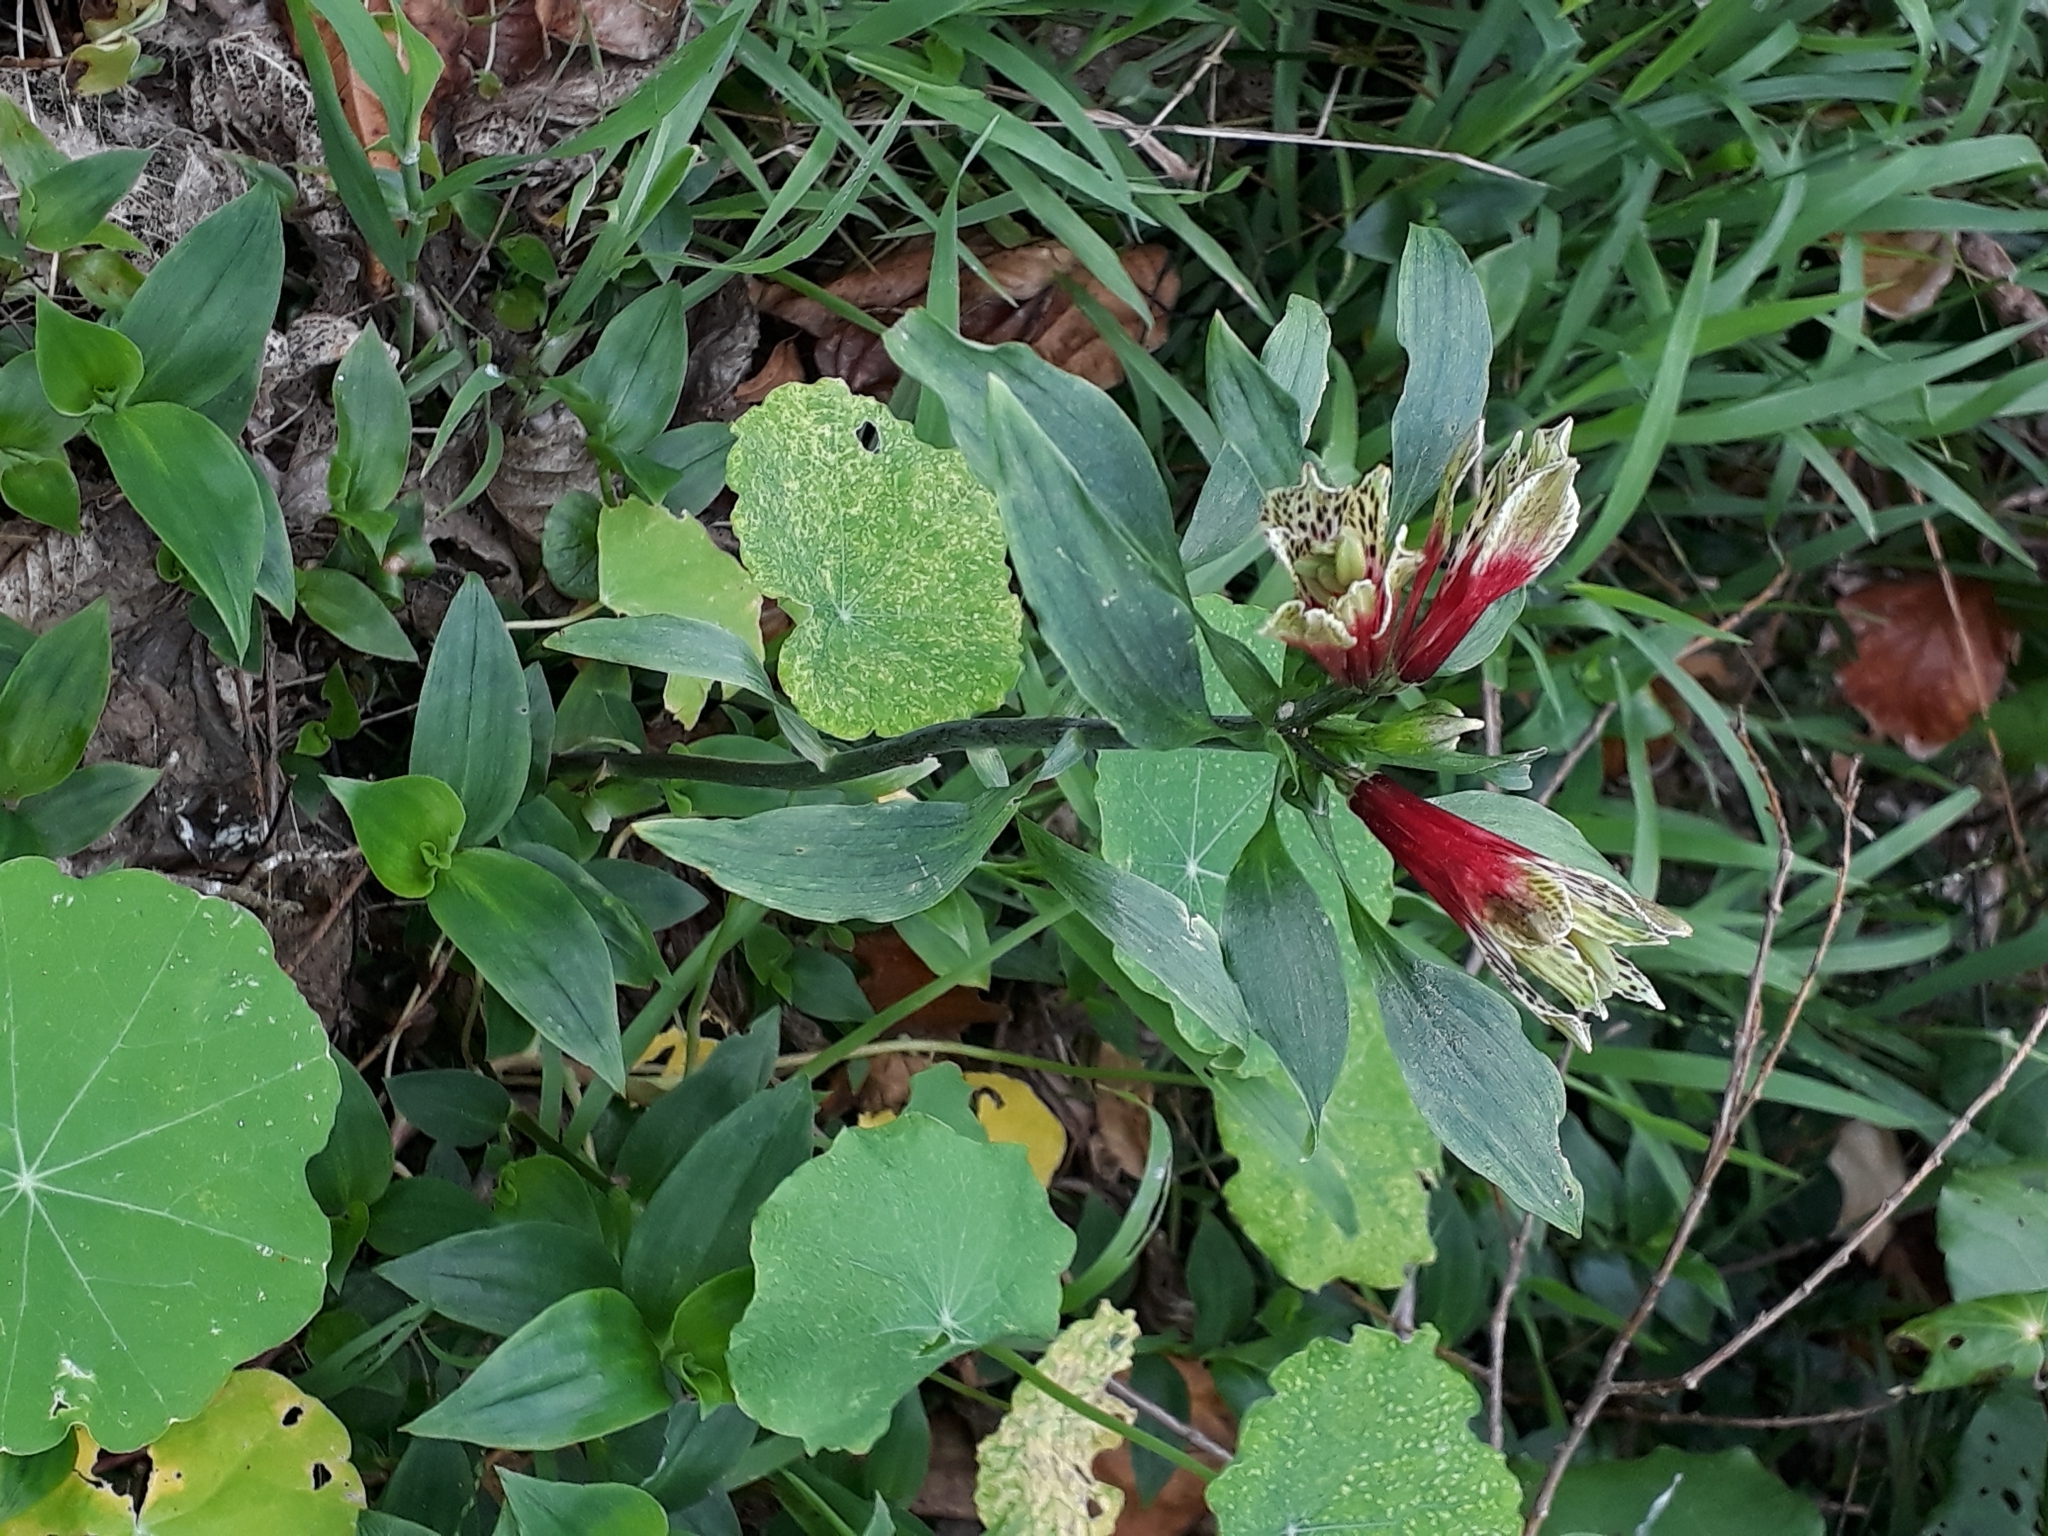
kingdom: Plantae
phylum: Tracheophyta
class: Liliopsida
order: Liliales
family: Alstroemeriaceae
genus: Alstroemeria
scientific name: Alstroemeria psittacina
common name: Peruvian-lily
